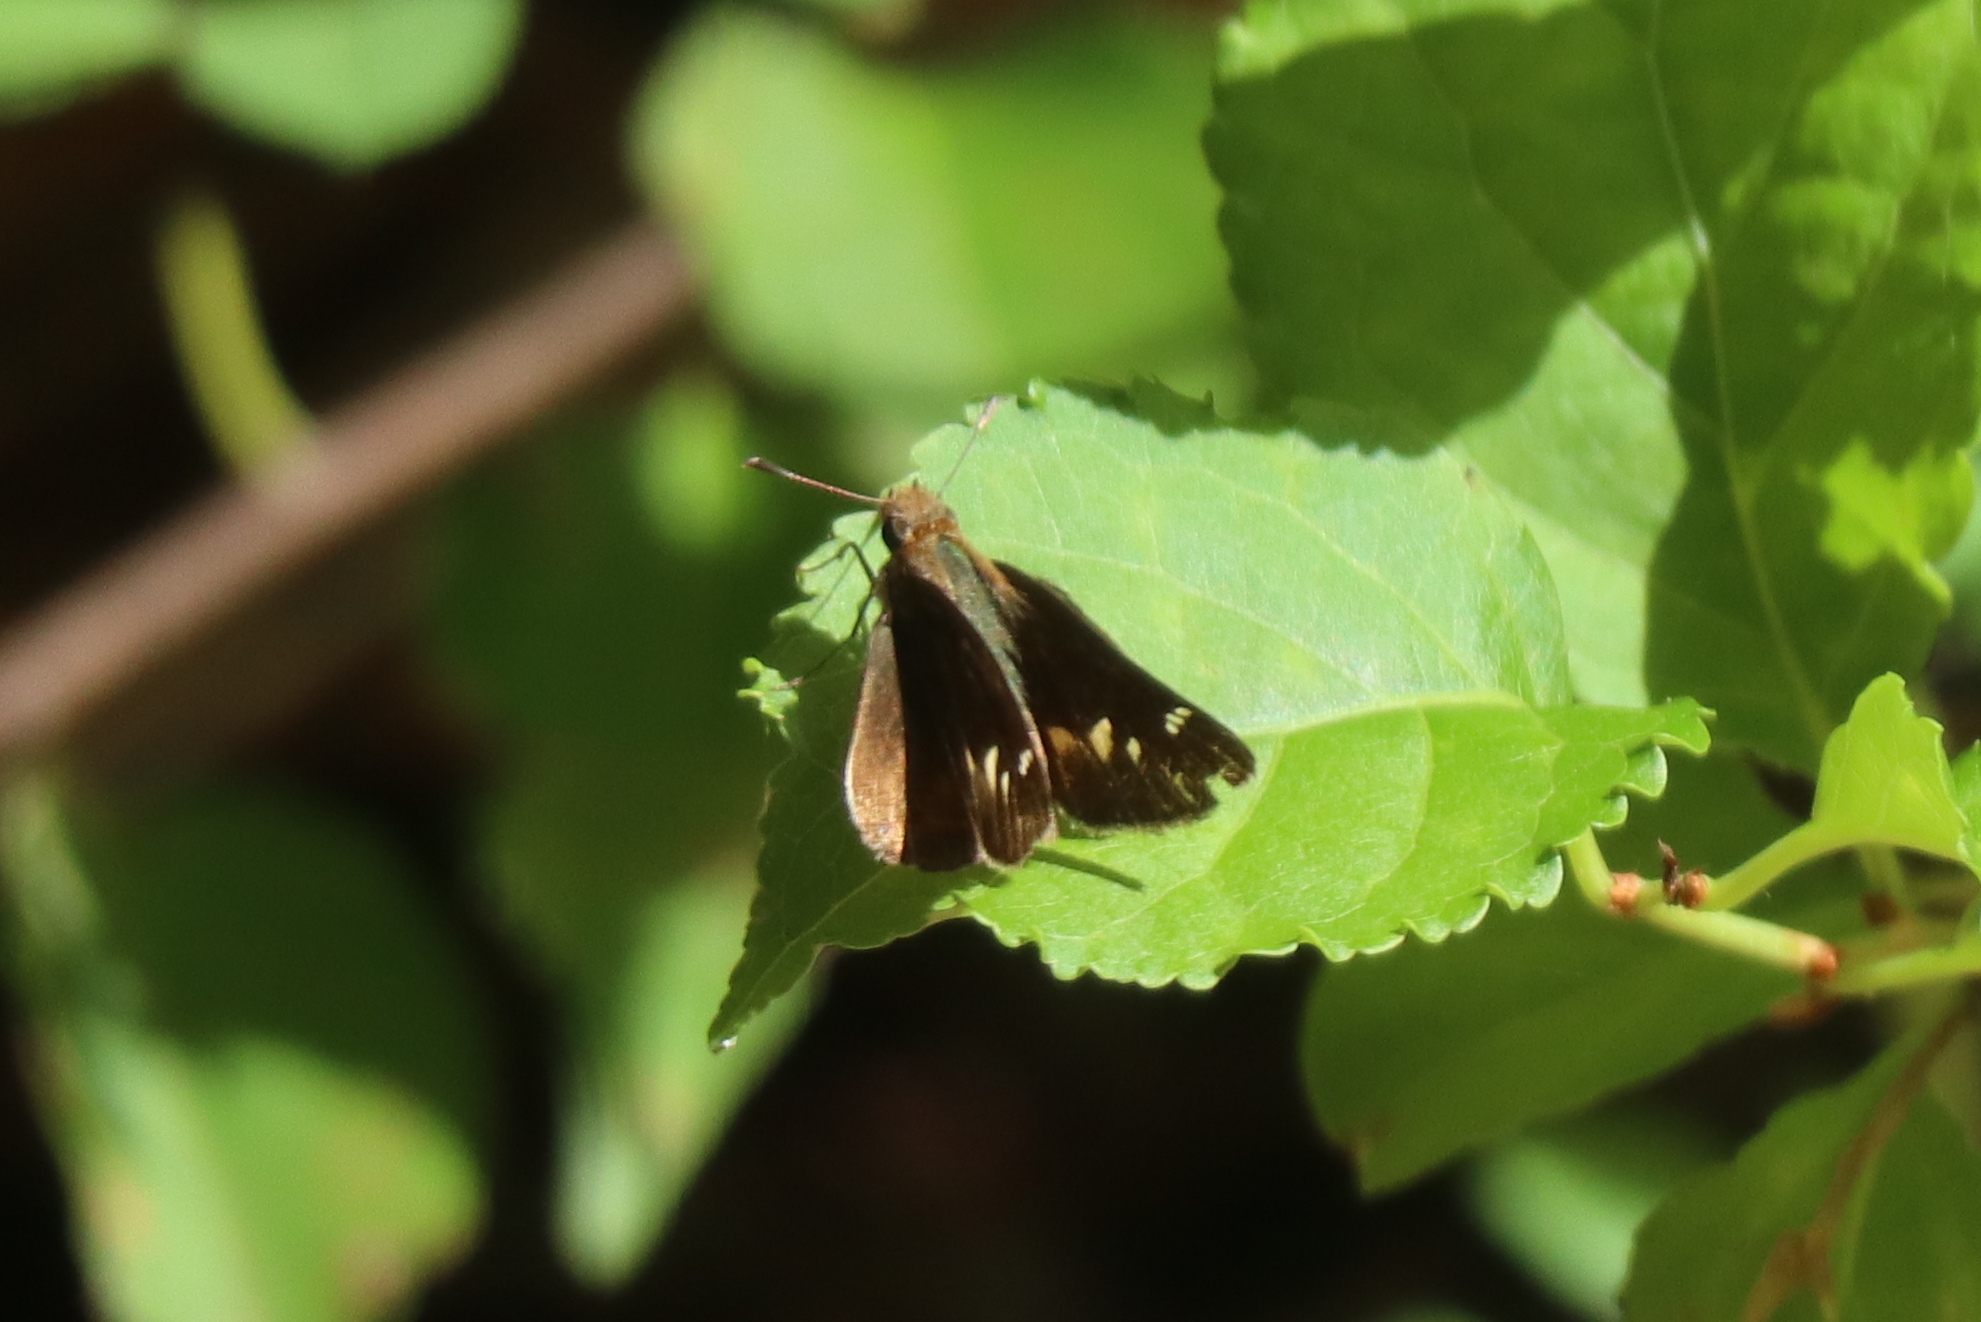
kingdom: Animalia
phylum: Arthropoda
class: Insecta
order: Lepidoptera
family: Hesperiidae
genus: Lon
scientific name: Lon zabulon
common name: Zabulon skipper
